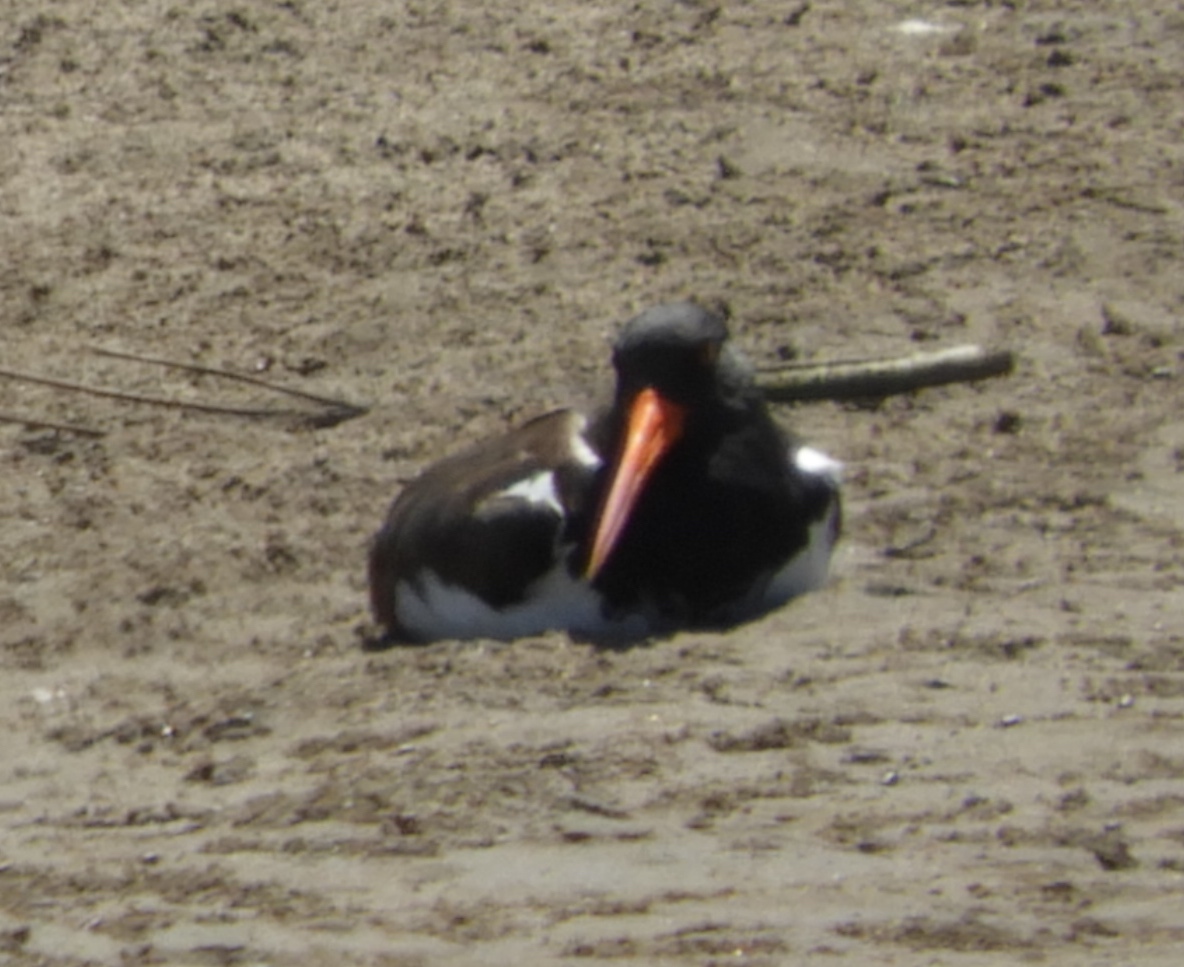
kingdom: Animalia
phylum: Chordata
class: Aves
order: Charadriiformes
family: Haematopodidae
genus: Haematopus
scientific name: Haematopus palliatus
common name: American oystercatcher
